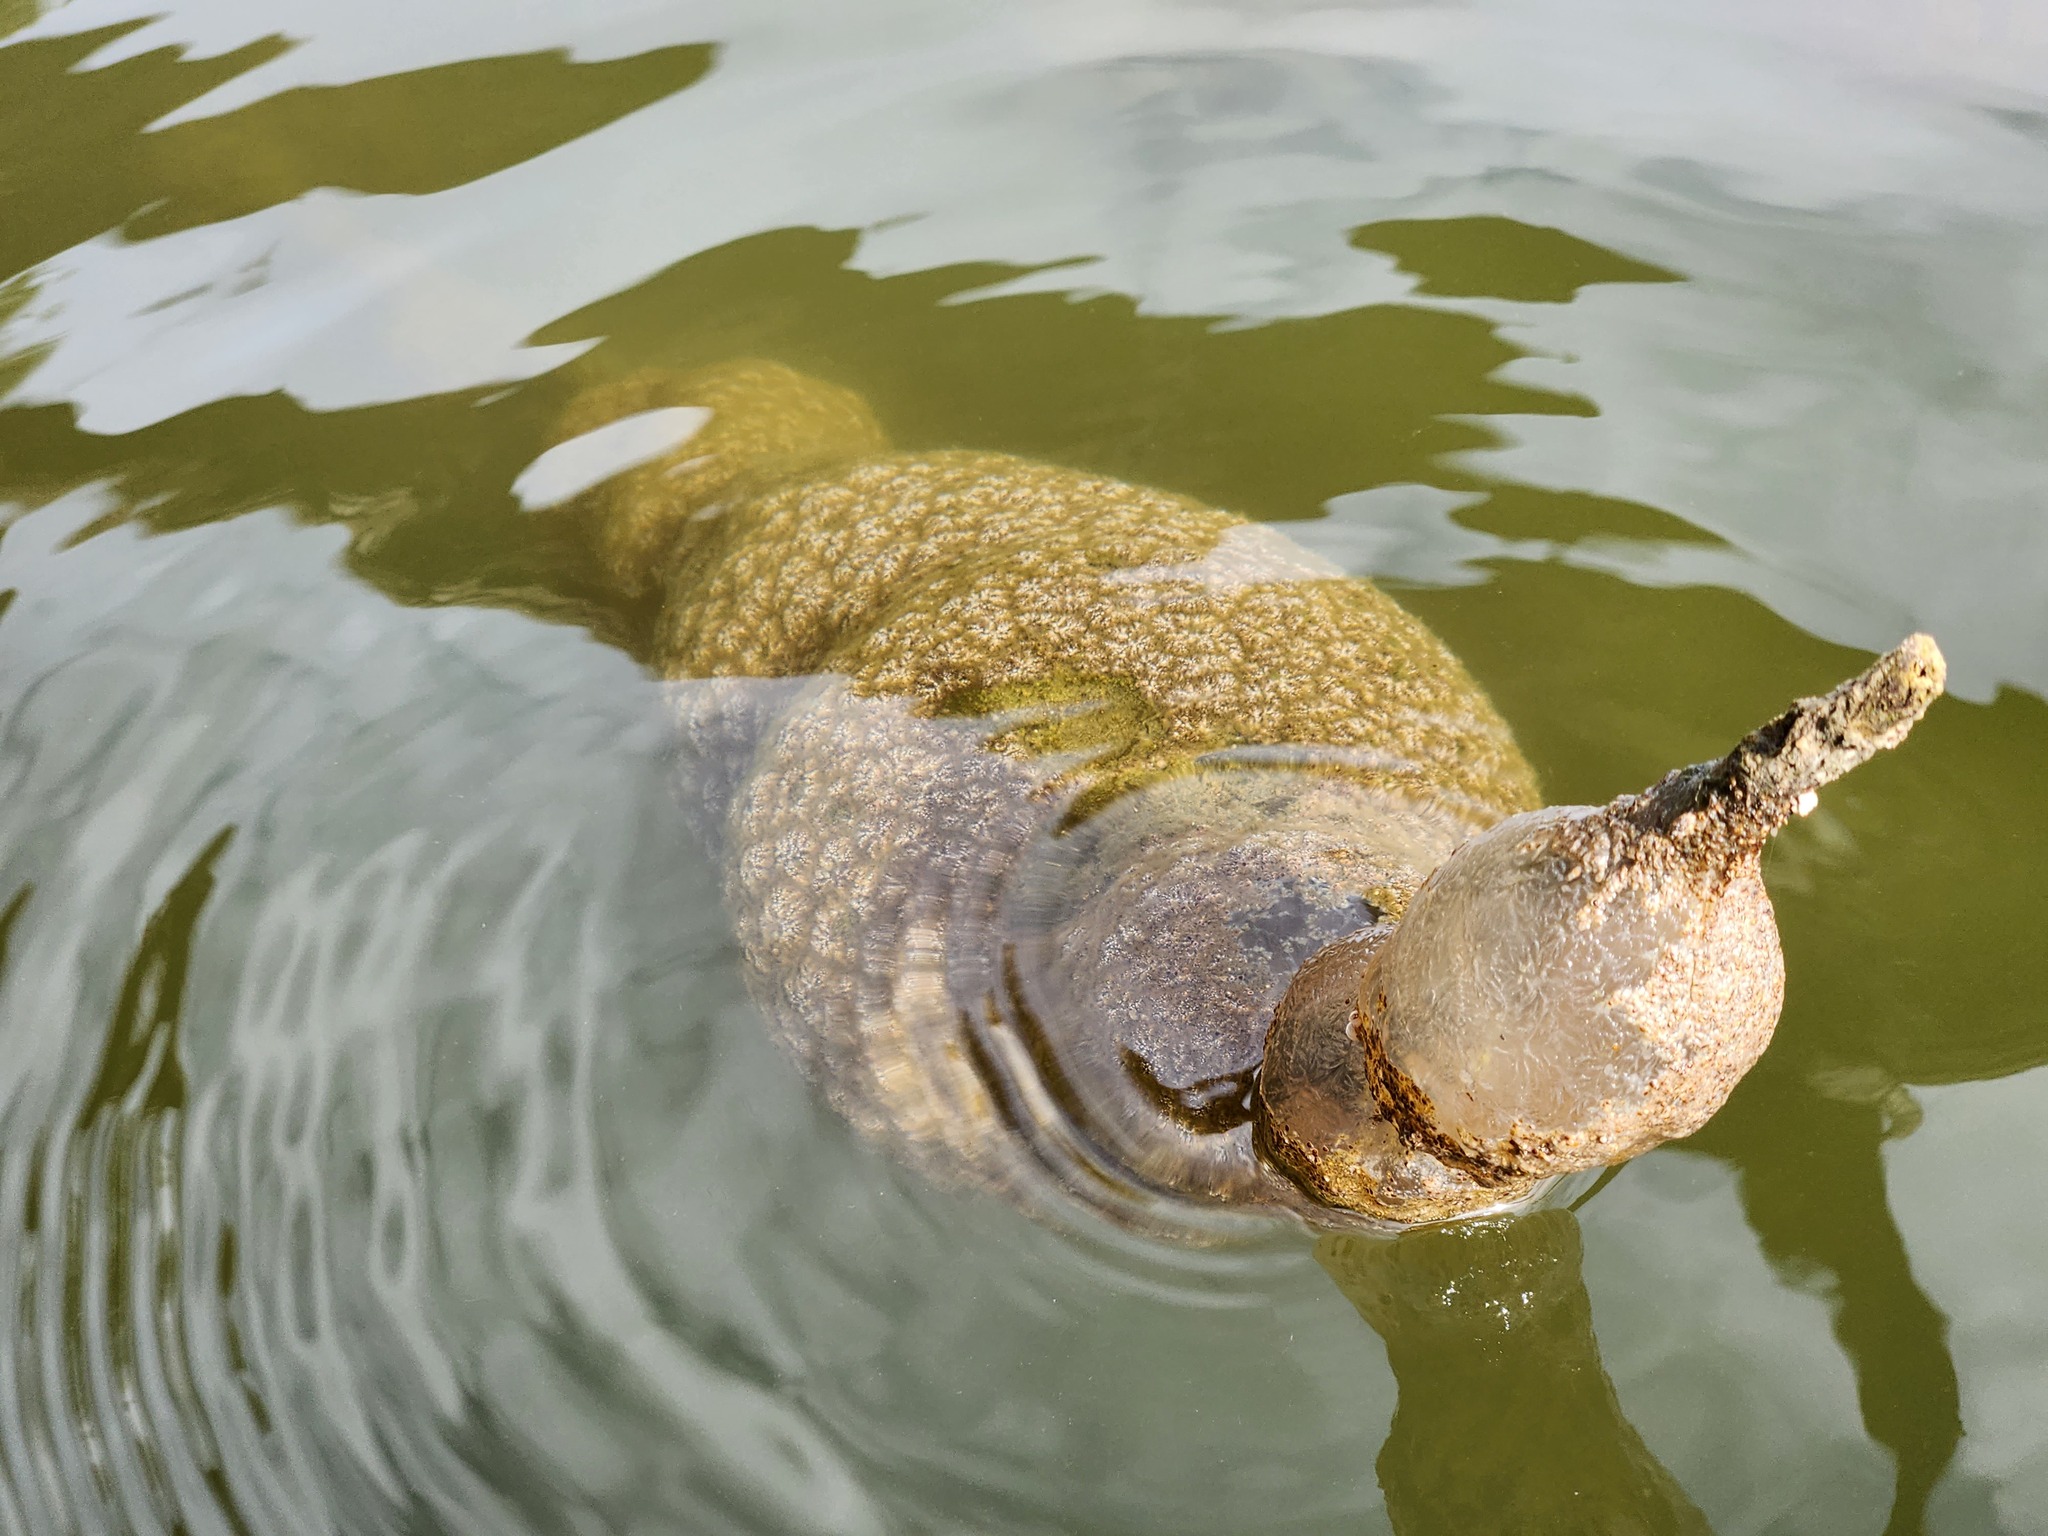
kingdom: Animalia
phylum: Bryozoa
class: Phylactolaemata
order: Plumatellida
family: Pectinatellidae
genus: Pectinatella
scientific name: Pectinatella magnifica
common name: Magnificent bryozoan
